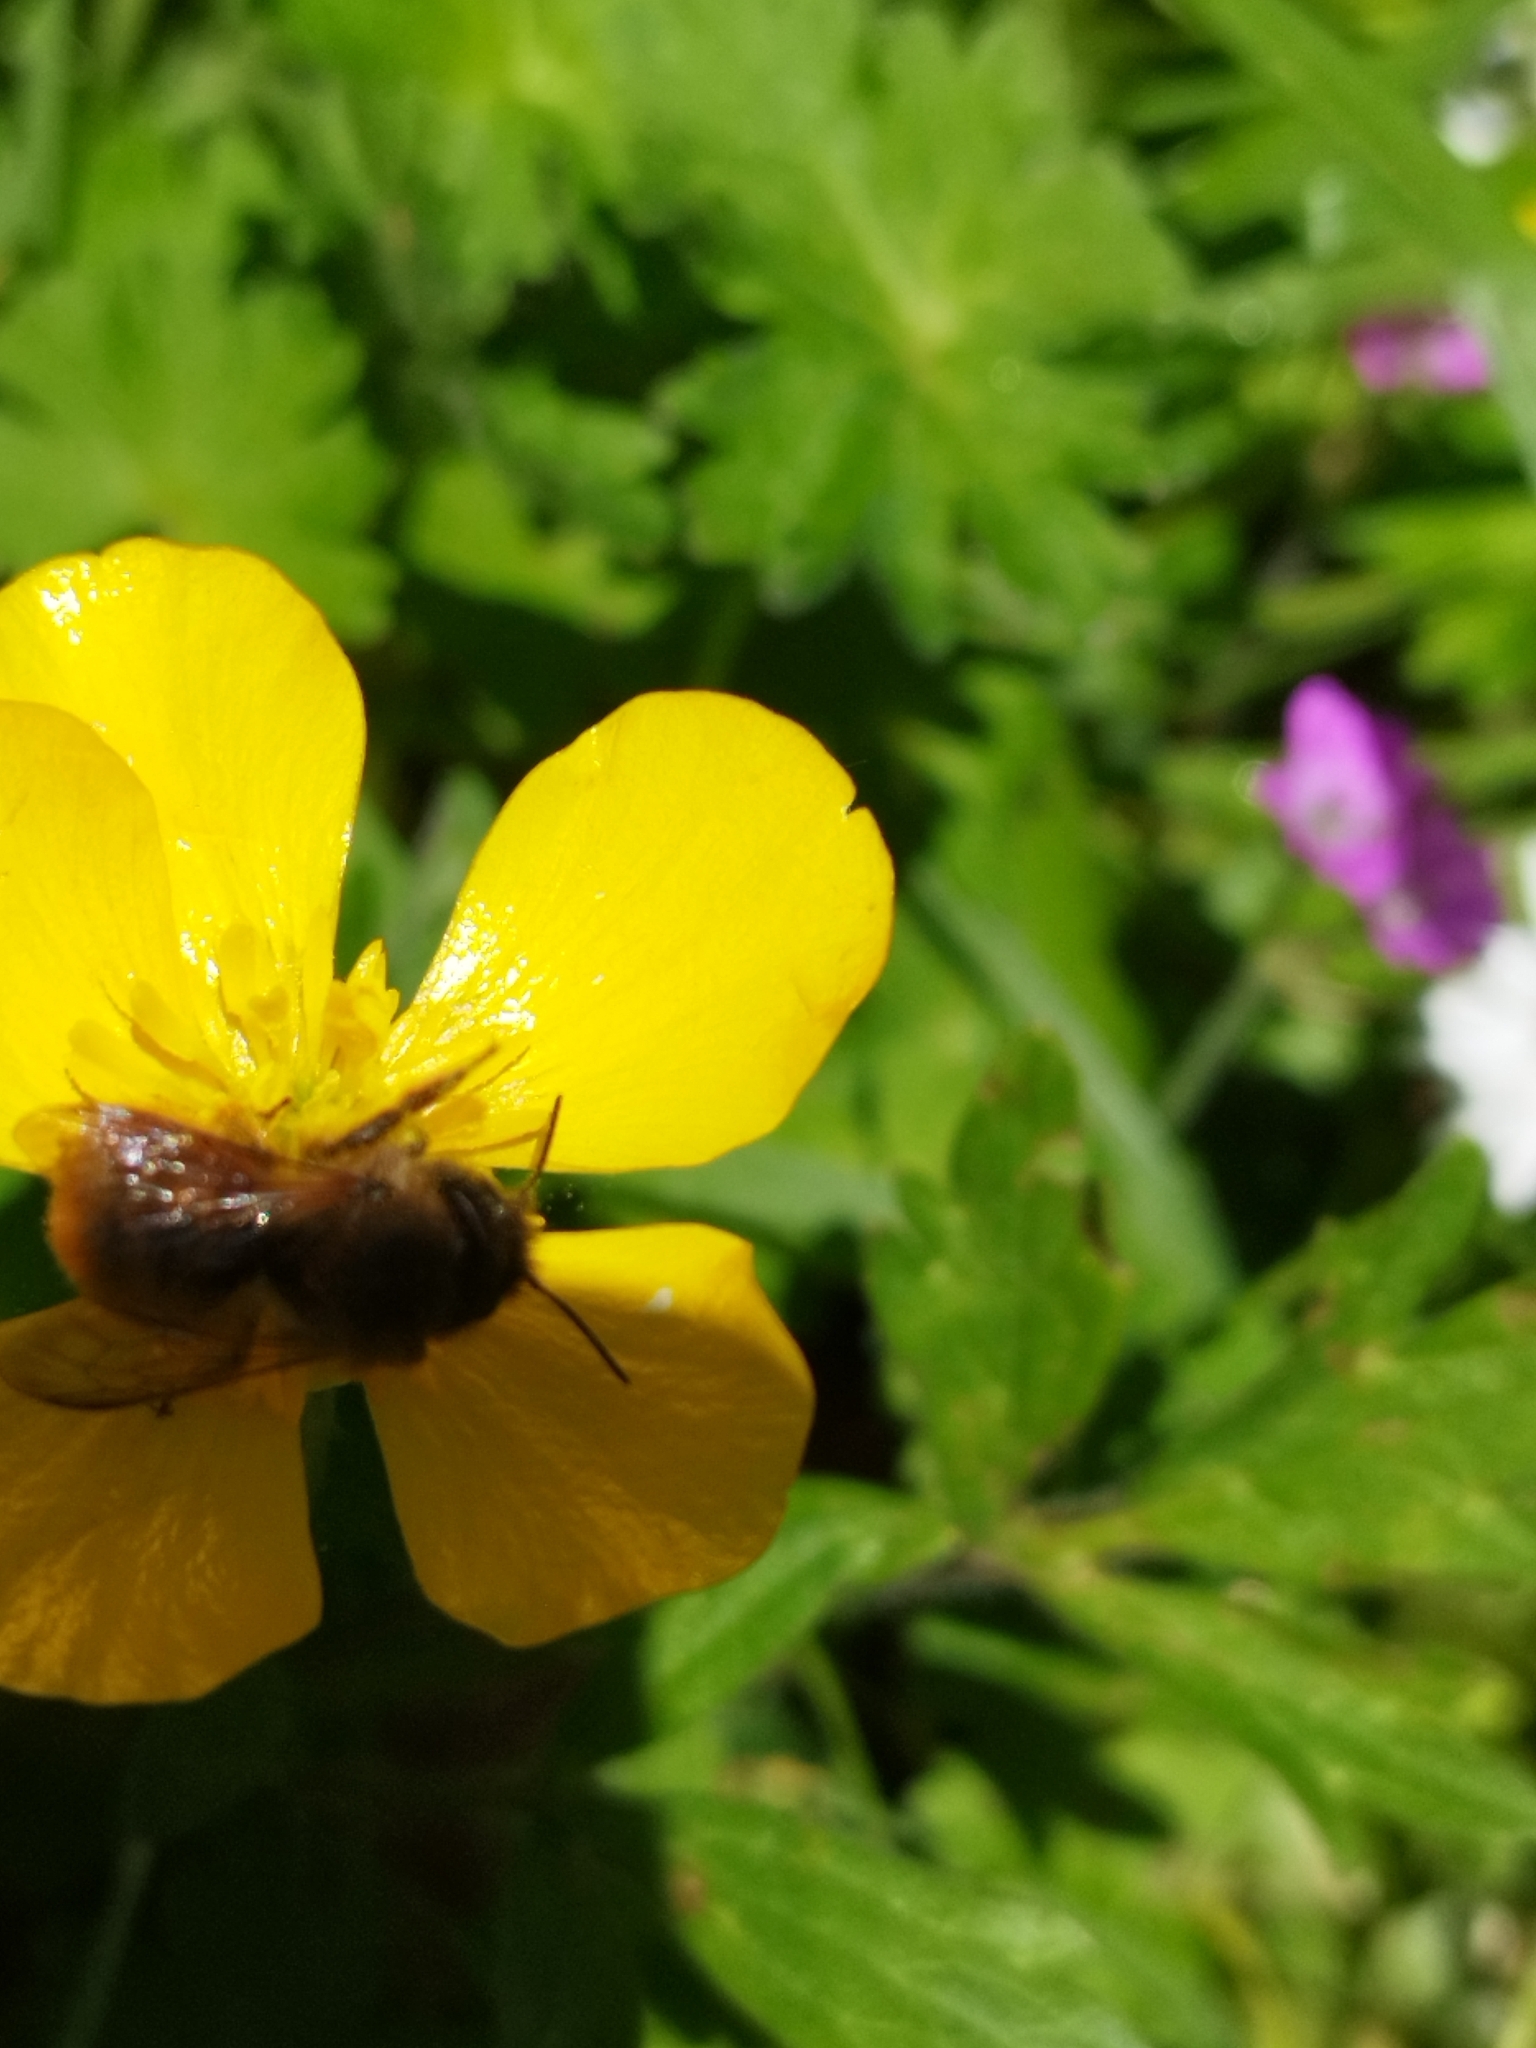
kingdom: Animalia
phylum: Arthropoda
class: Insecta
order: Hymenoptera
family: Megachilidae
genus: Osmia
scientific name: Osmia bicornis
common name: Red mason bee
